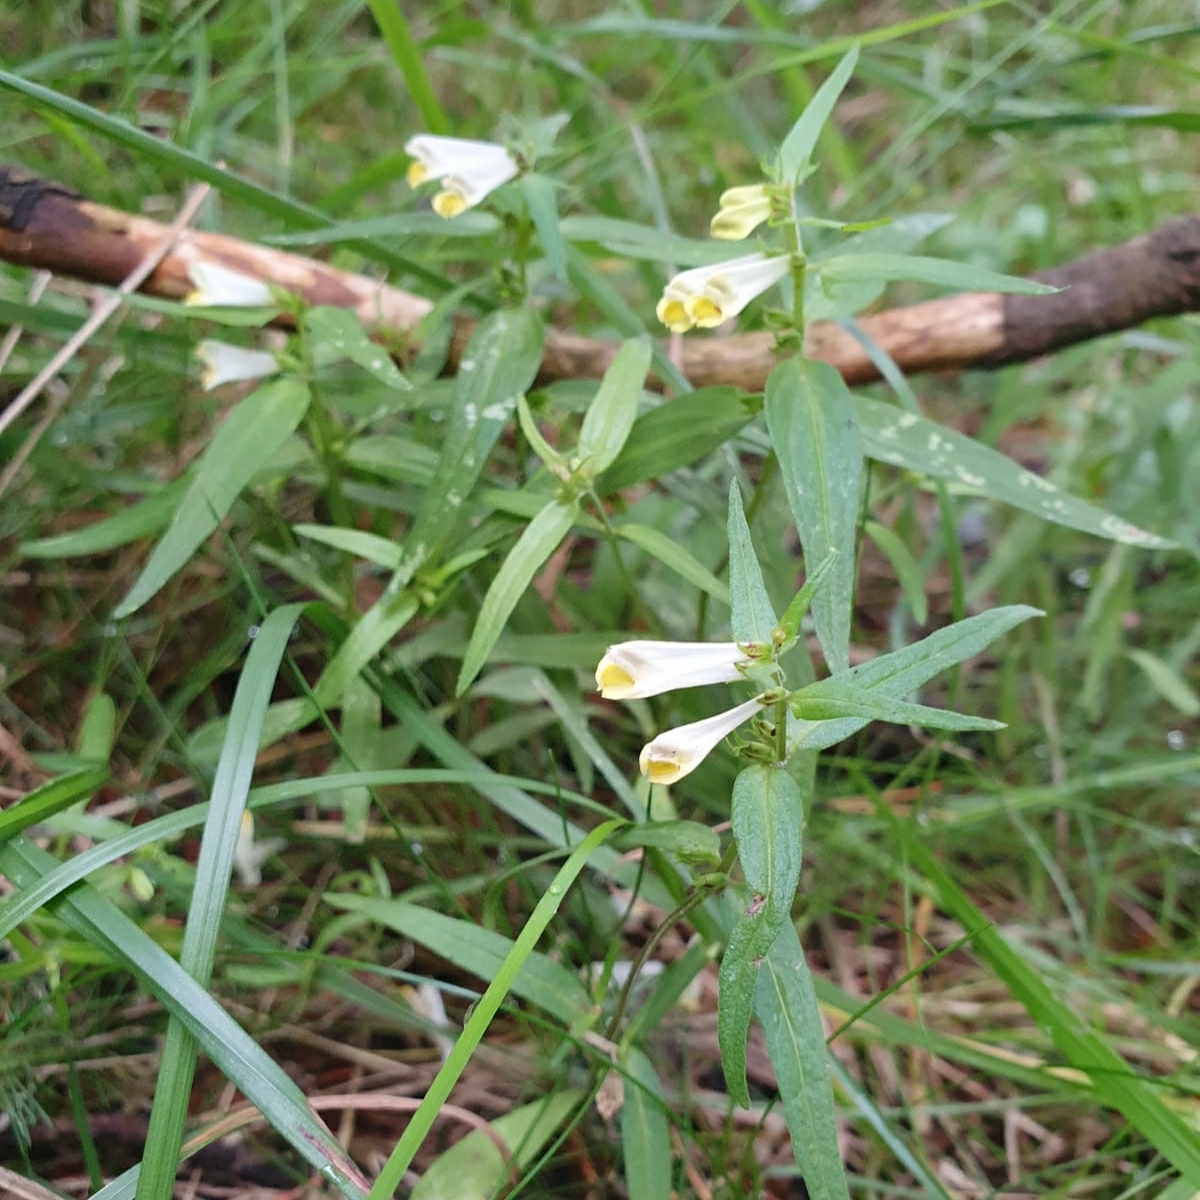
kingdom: Plantae
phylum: Tracheophyta
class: Magnoliopsida
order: Lamiales
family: Orobanchaceae
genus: Melampyrum
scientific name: Melampyrum pratense
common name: Common cow-wheat
